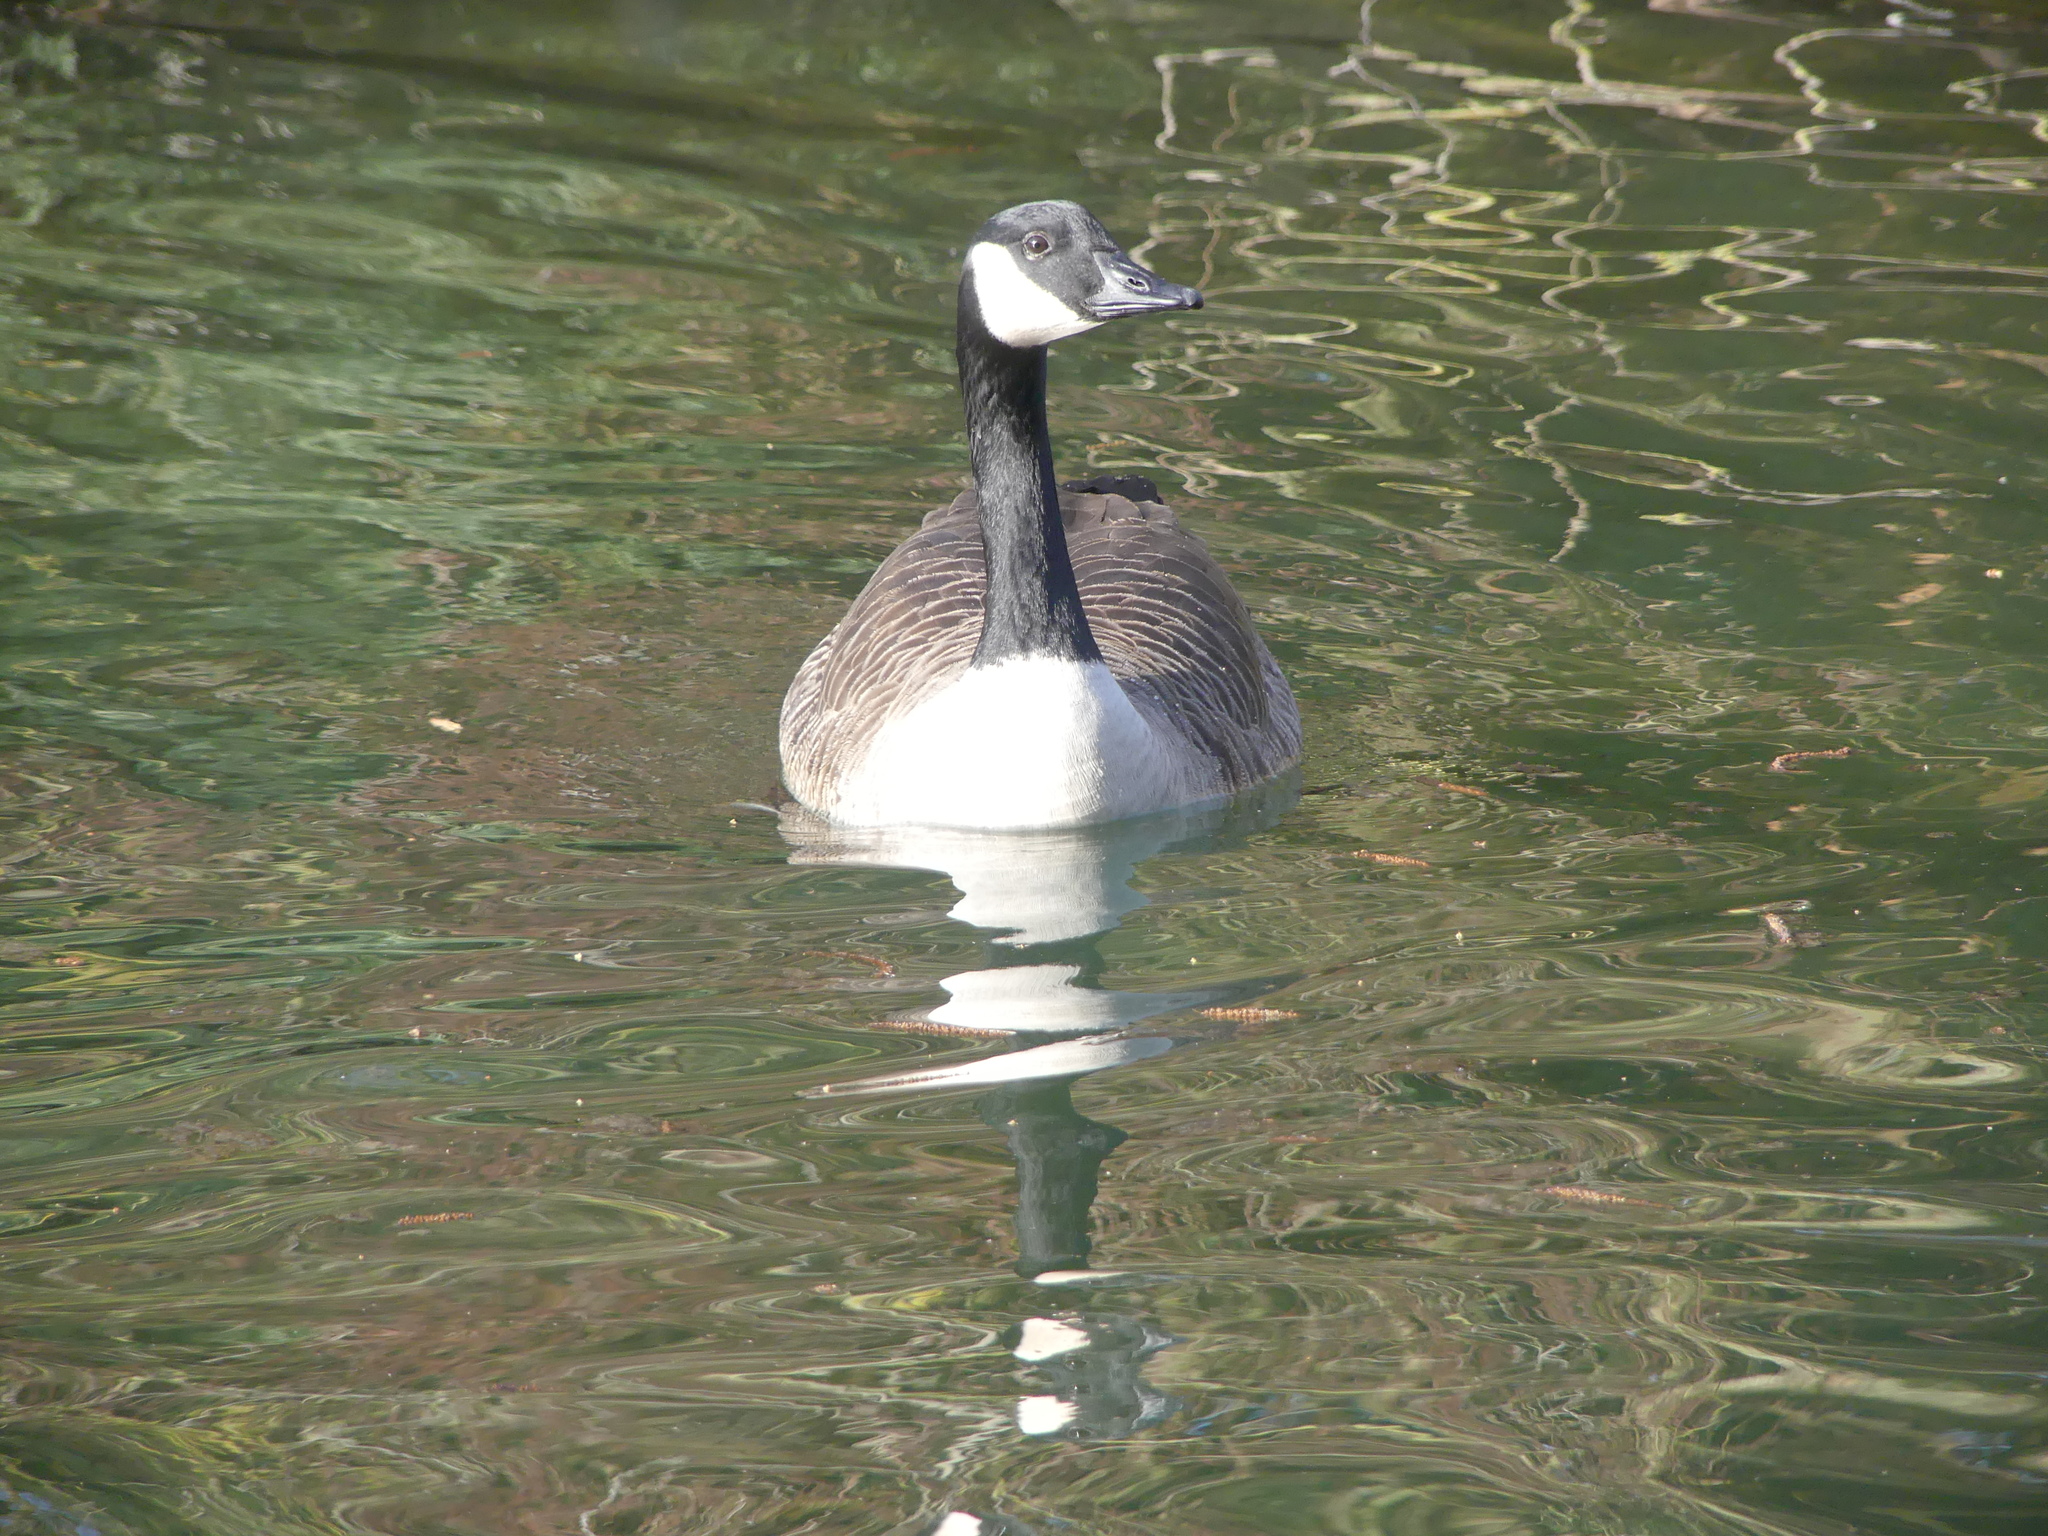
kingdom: Animalia
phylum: Chordata
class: Aves
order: Anseriformes
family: Anatidae
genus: Branta
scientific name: Branta canadensis
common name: Canada goose
